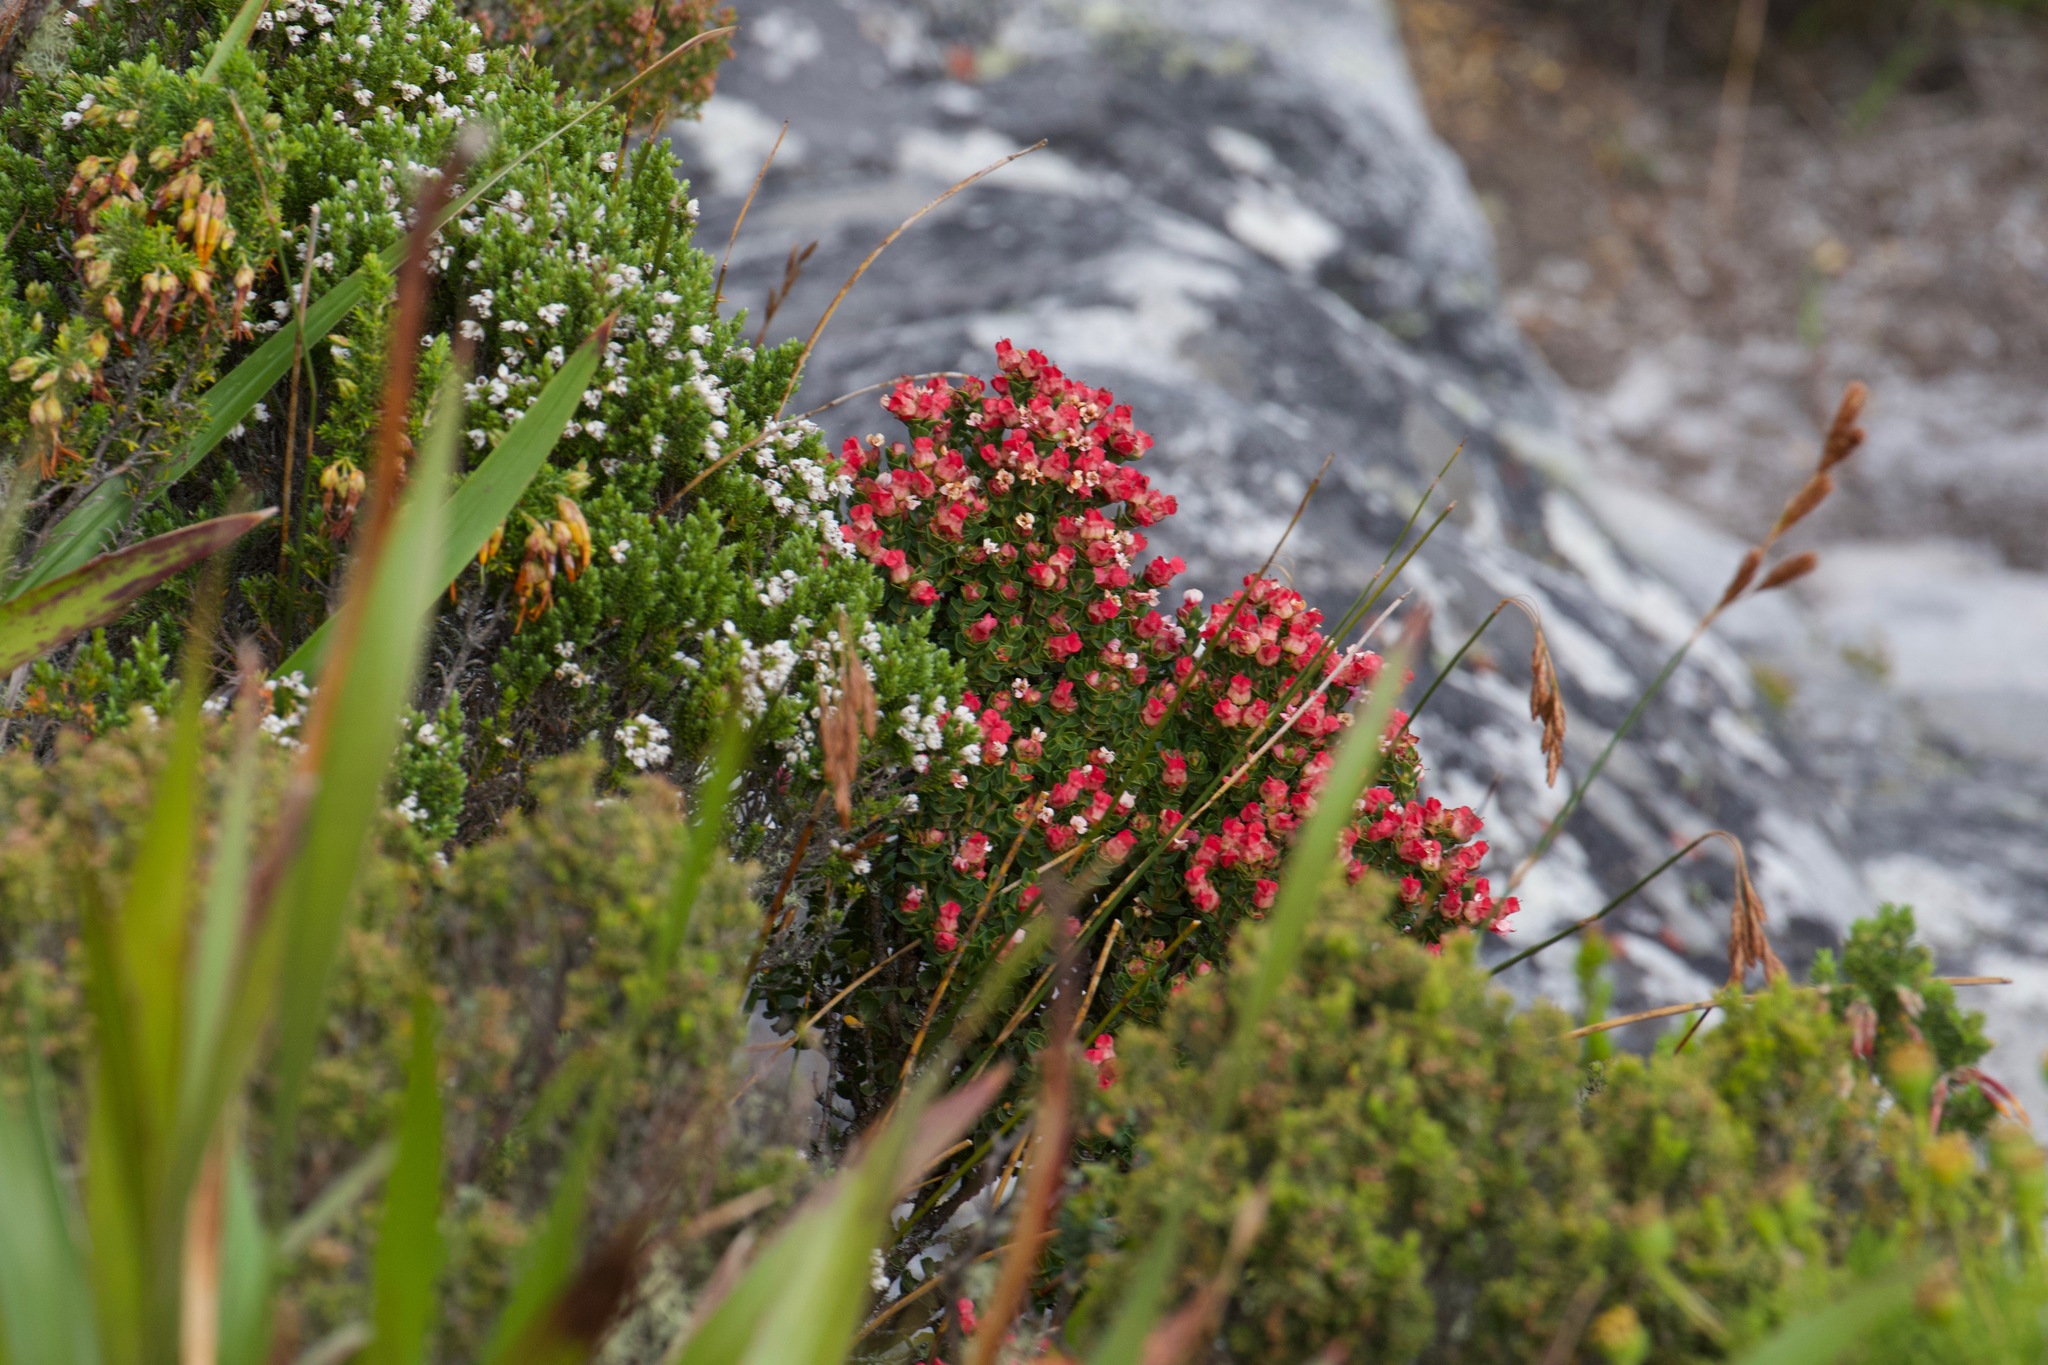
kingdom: Plantae
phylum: Tracheophyta
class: Magnoliopsida
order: Myrtales
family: Penaeaceae
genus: Brachysiphon
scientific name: Brachysiphon fucatus
